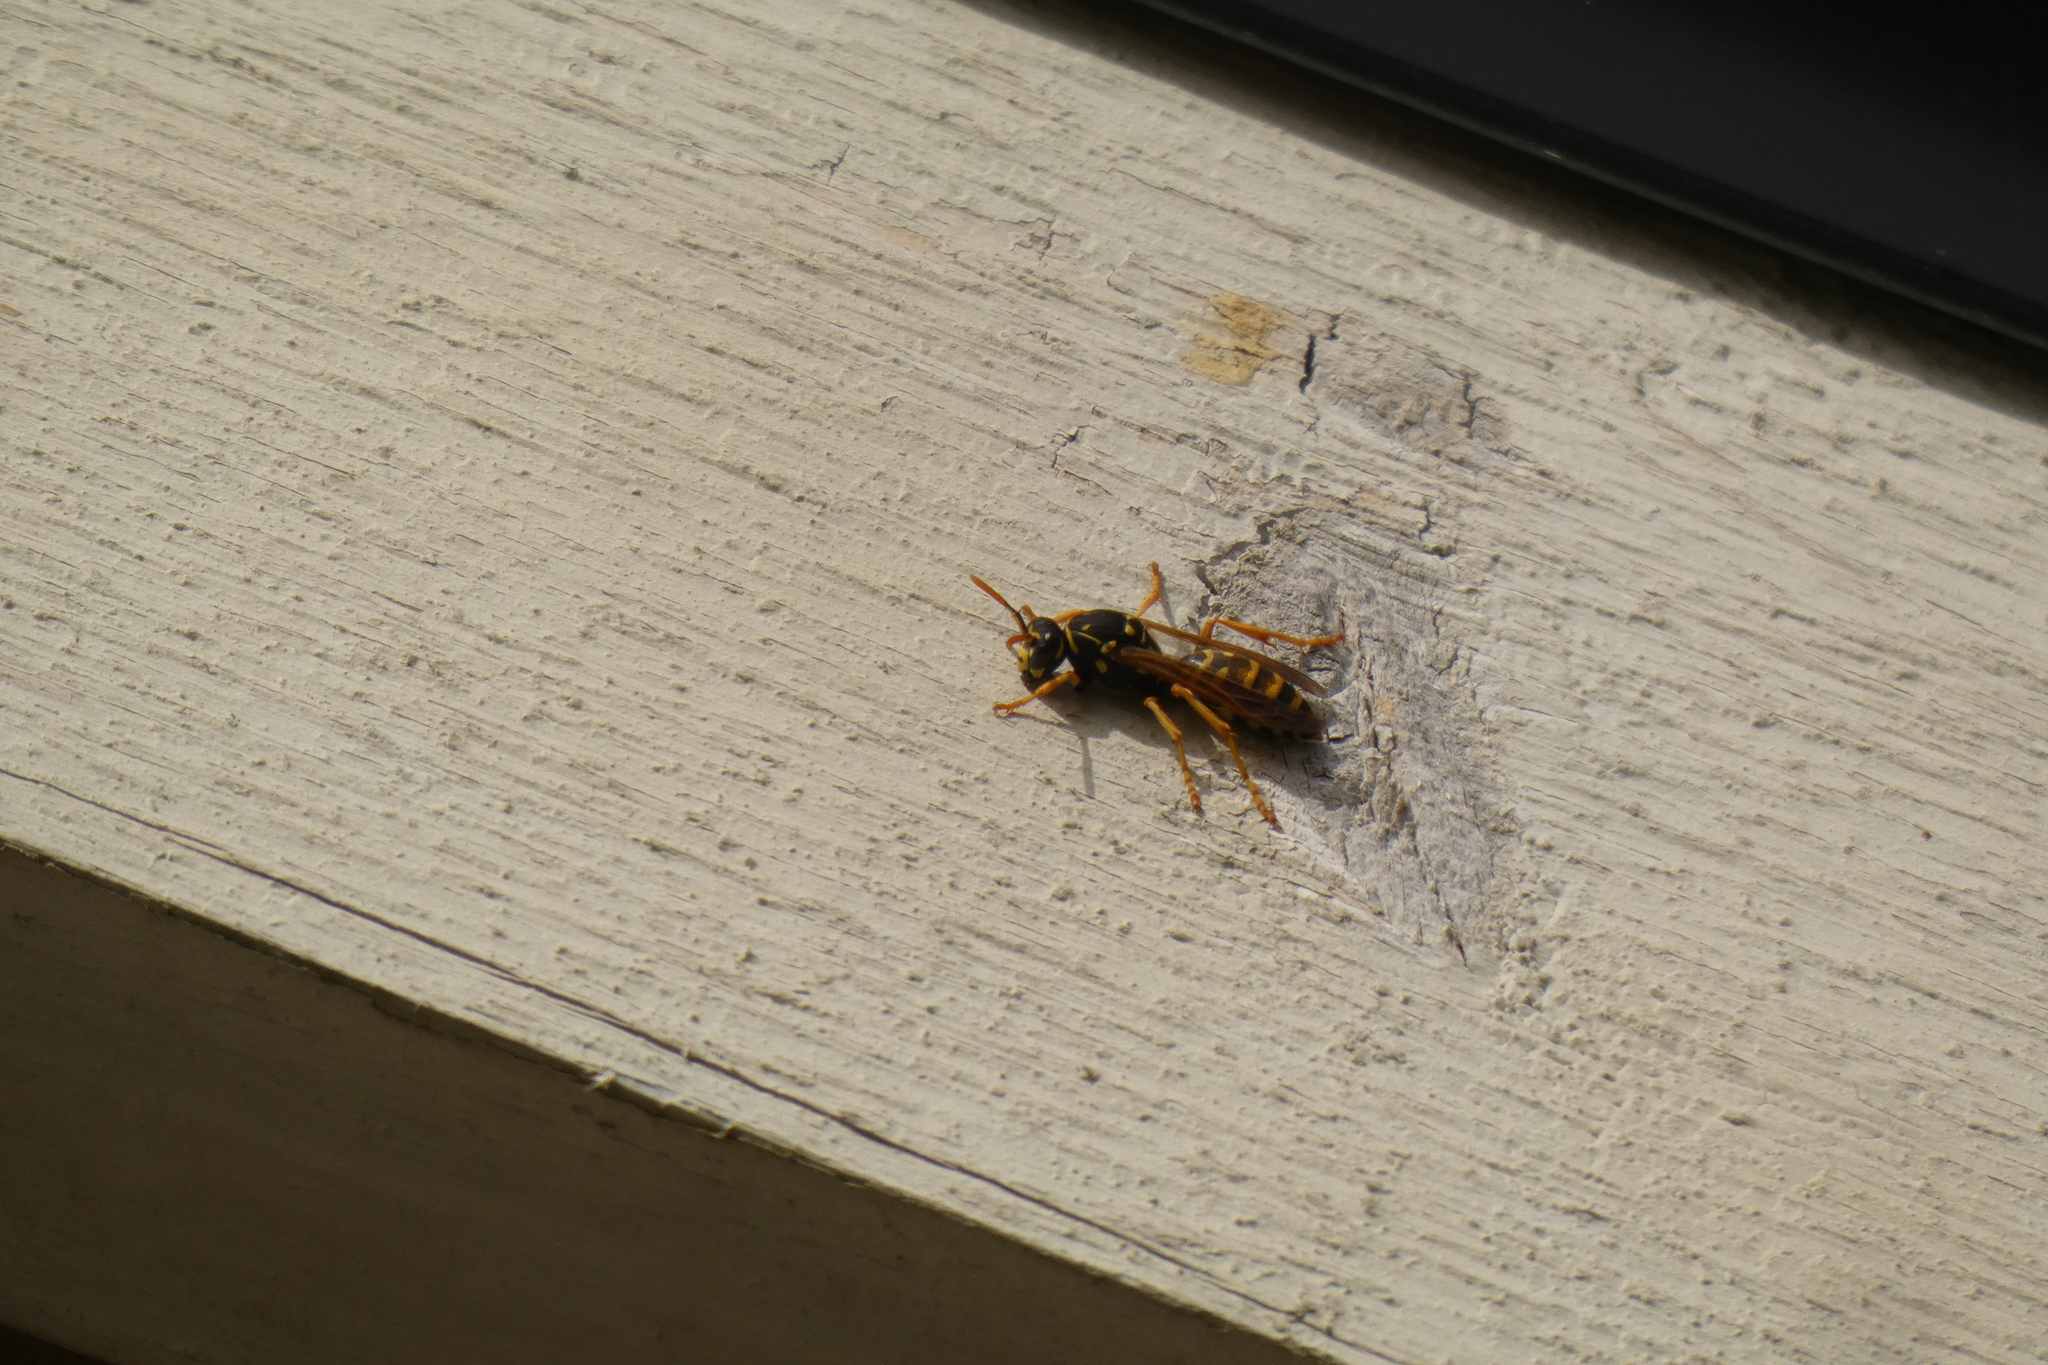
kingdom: Animalia
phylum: Arthropoda
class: Insecta
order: Hymenoptera
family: Eumenidae
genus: Polistes
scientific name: Polistes dominula
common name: Paper wasp
